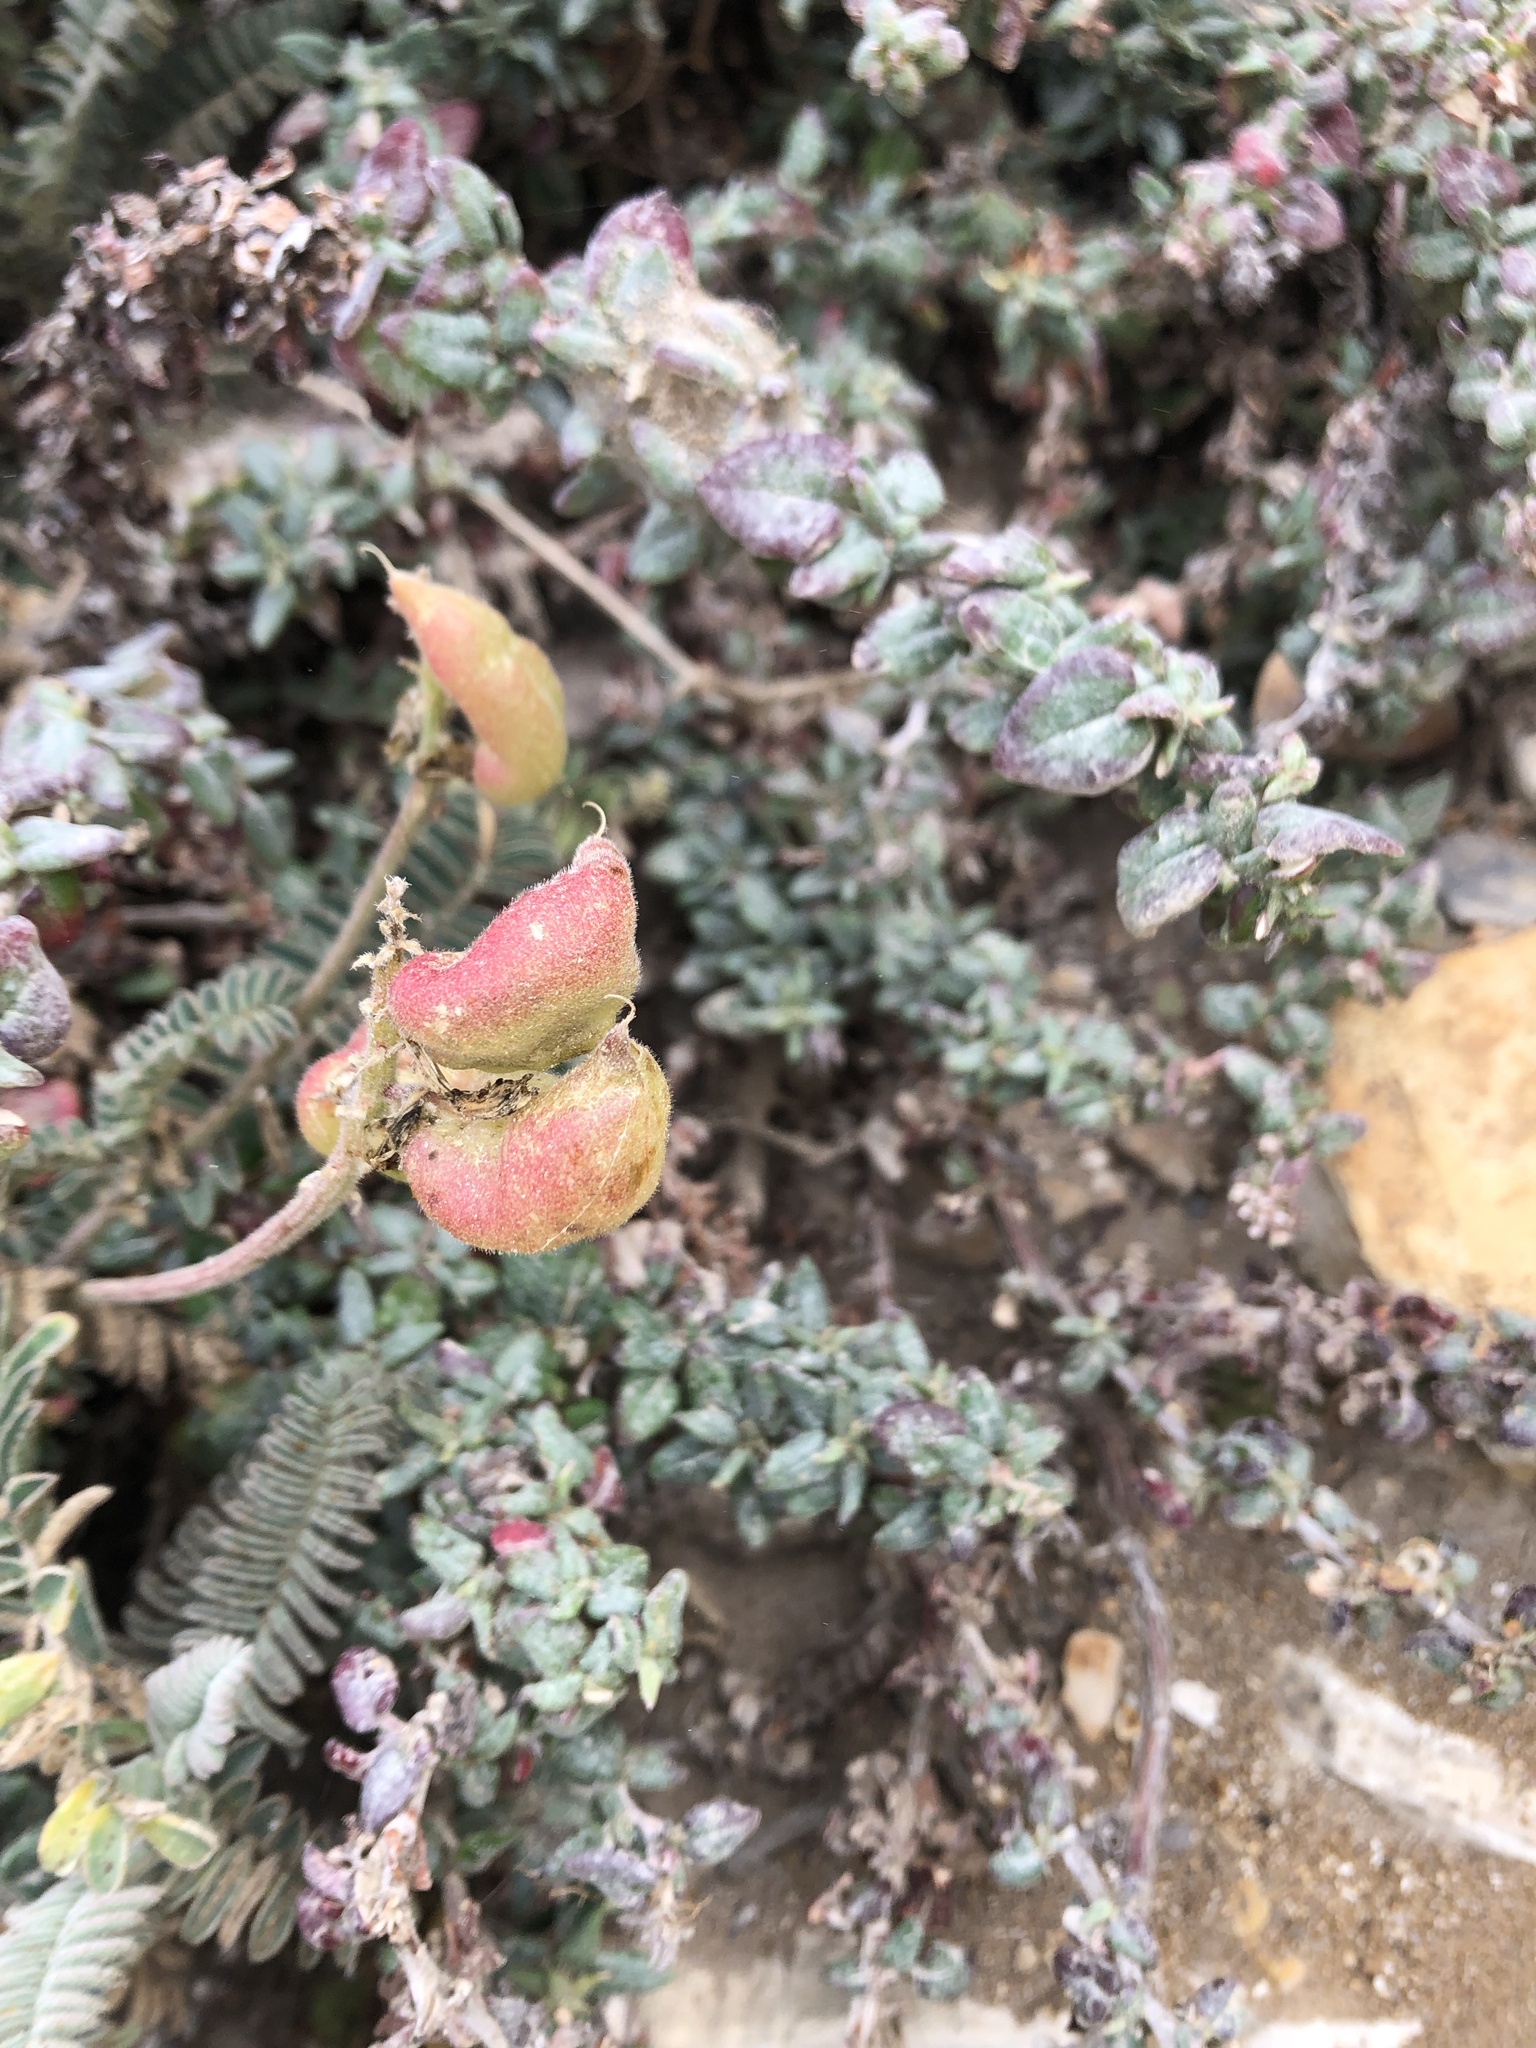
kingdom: Plantae
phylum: Tracheophyta
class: Magnoliopsida
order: Fabales
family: Fabaceae
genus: Astragalus
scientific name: Astragalus nuttallii
